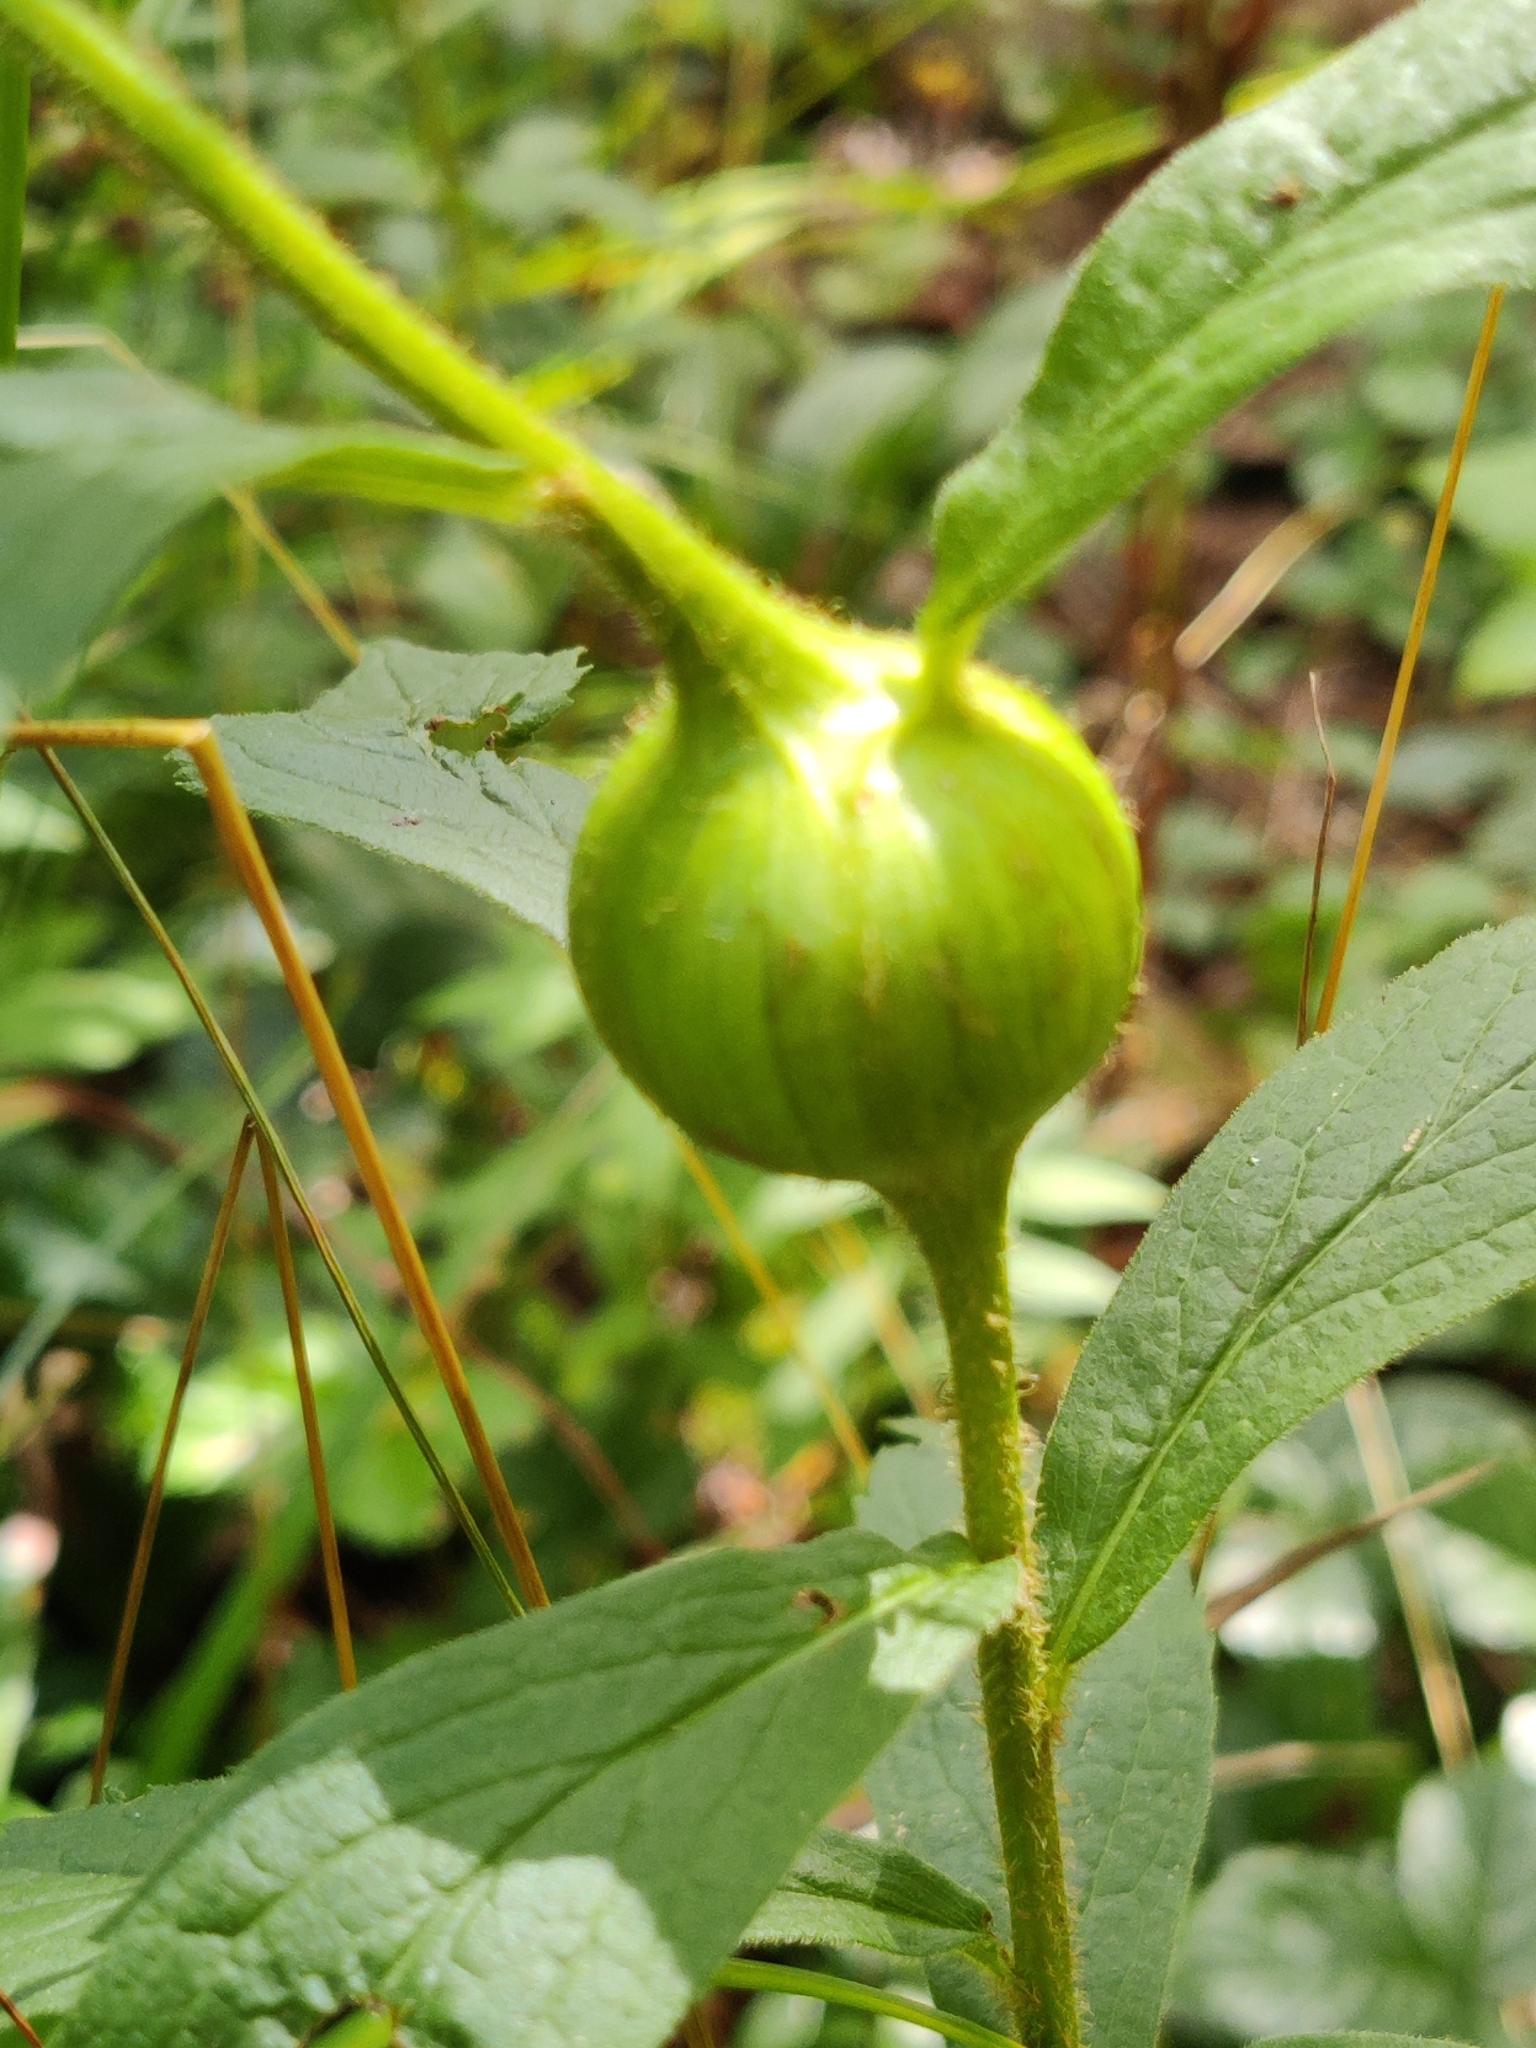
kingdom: Animalia
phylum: Arthropoda
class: Insecta
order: Diptera
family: Tephritidae
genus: Eurosta
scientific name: Eurosta solidaginis
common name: Goldenrod gall fly
